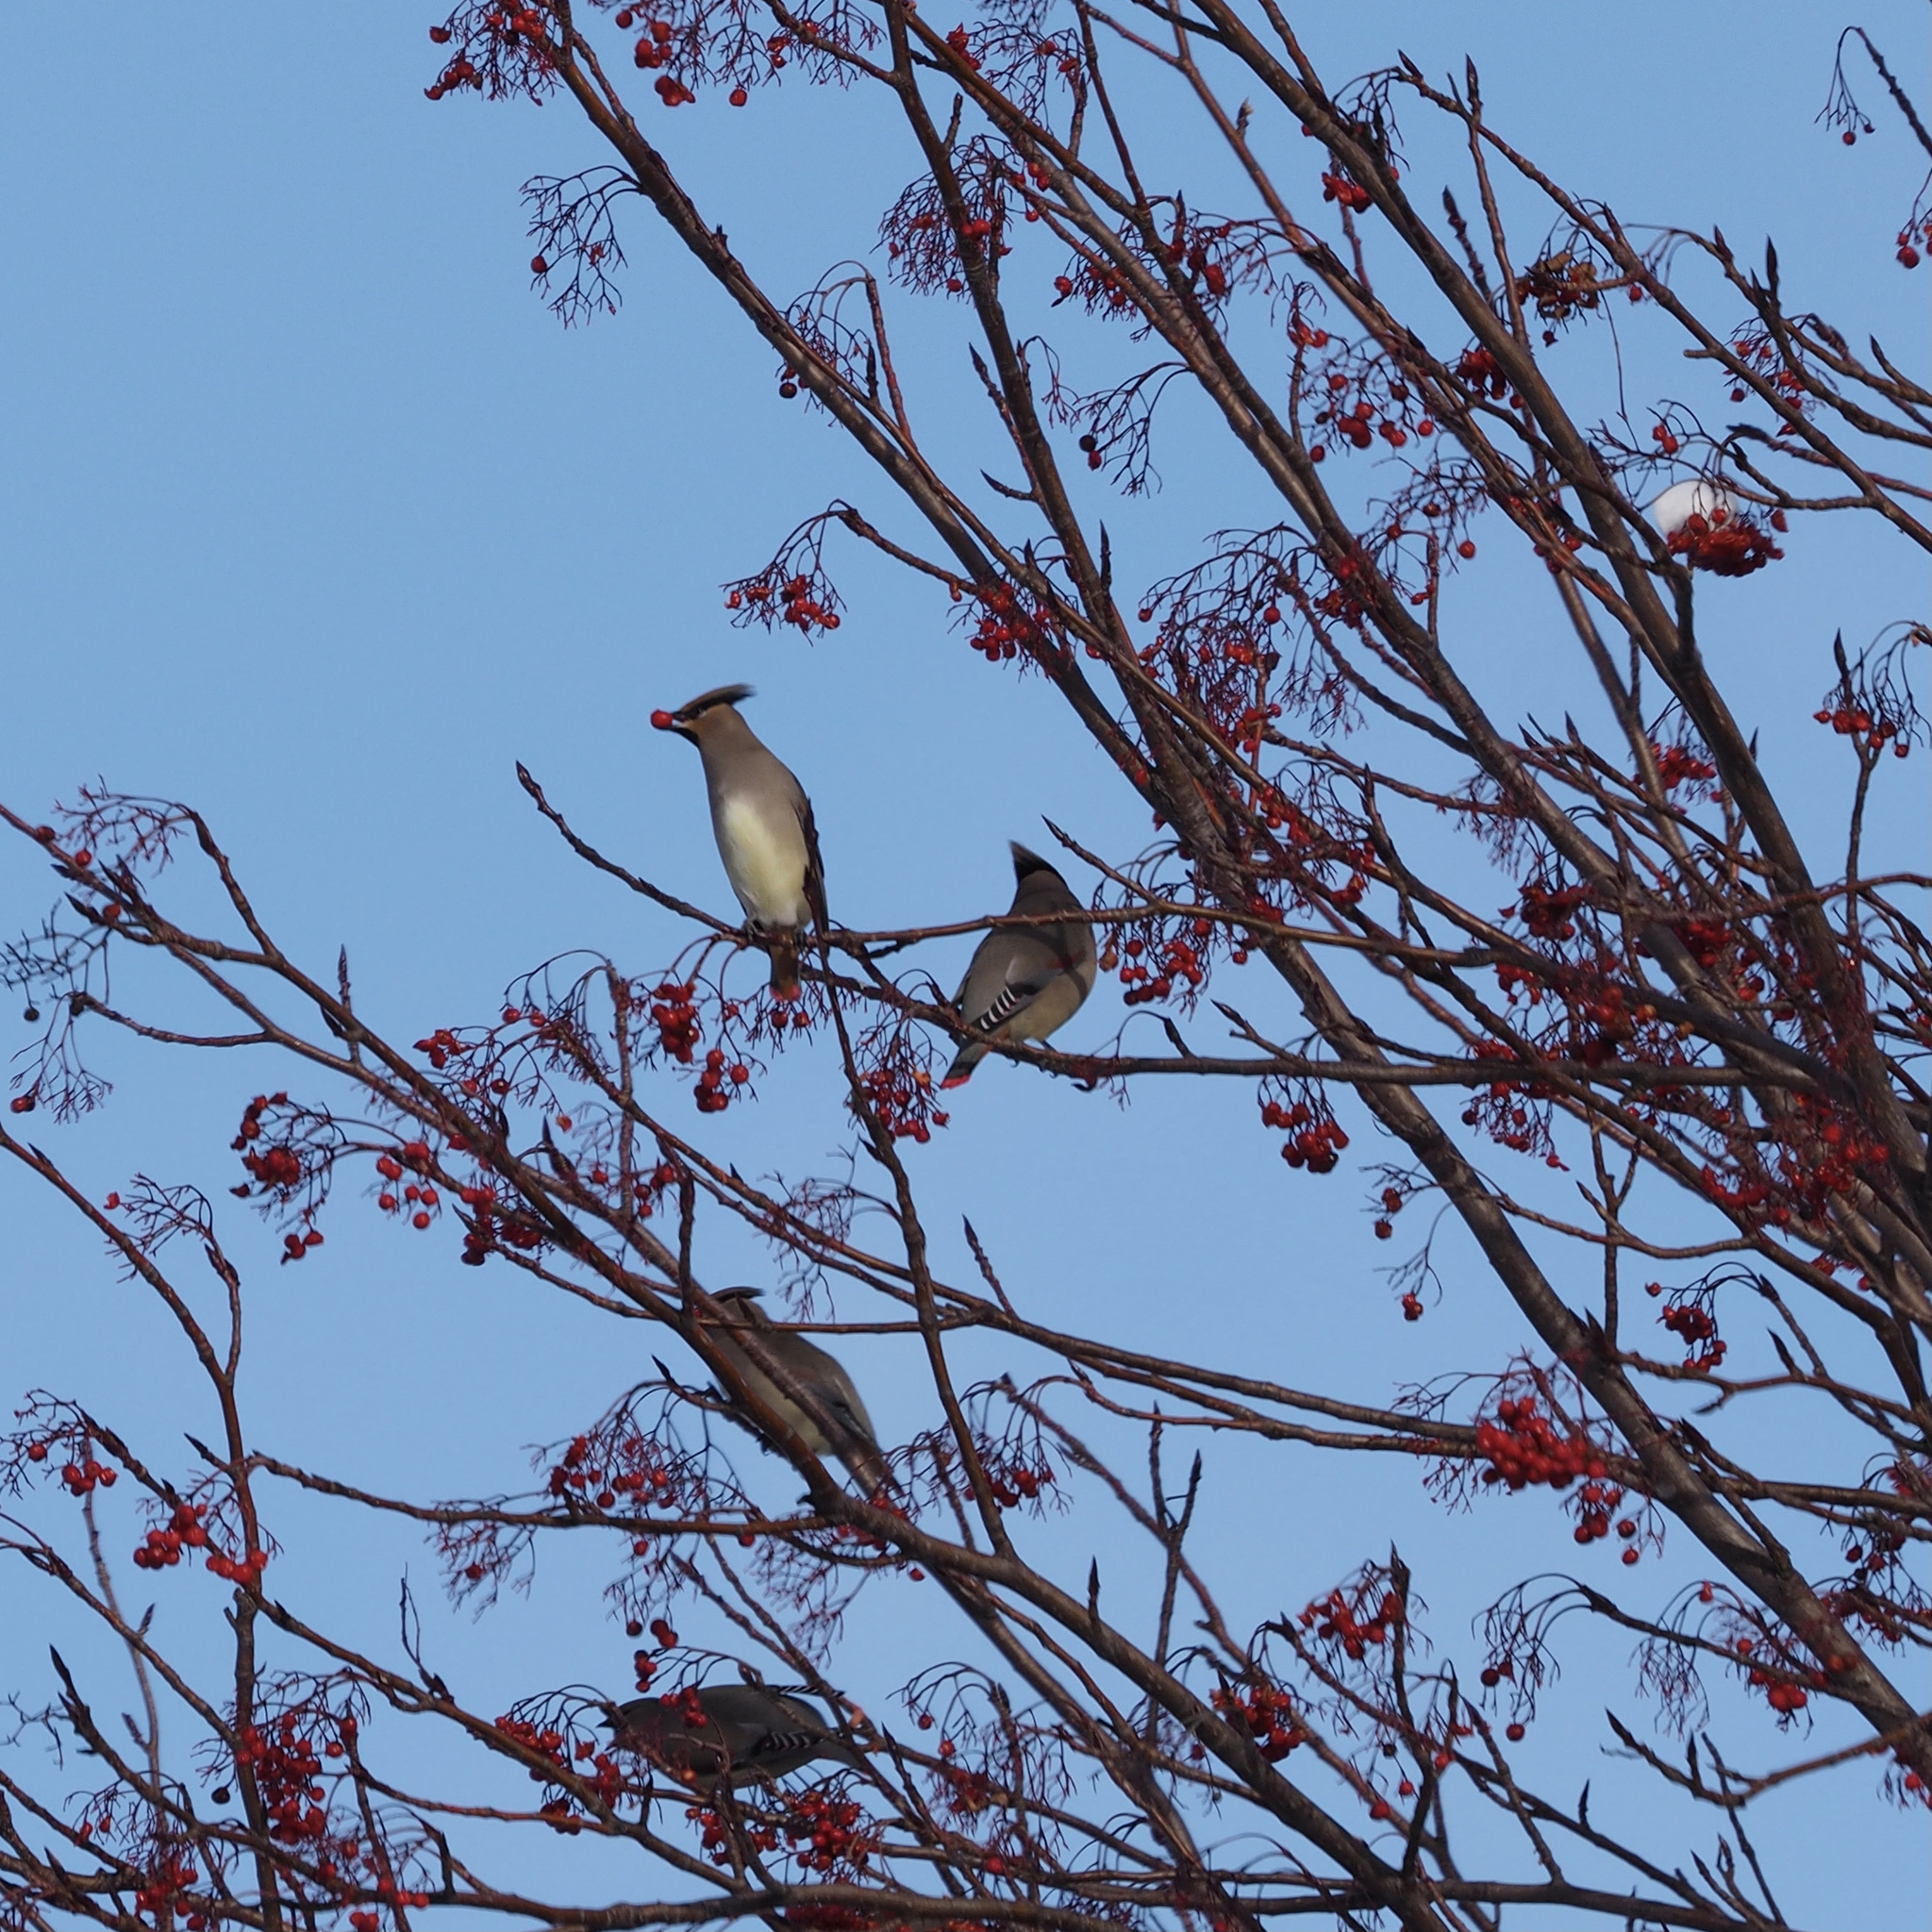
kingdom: Animalia
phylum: Chordata
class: Aves
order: Passeriformes
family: Bombycillidae
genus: Bombycilla
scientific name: Bombycilla japonica
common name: Japanese waxwing
